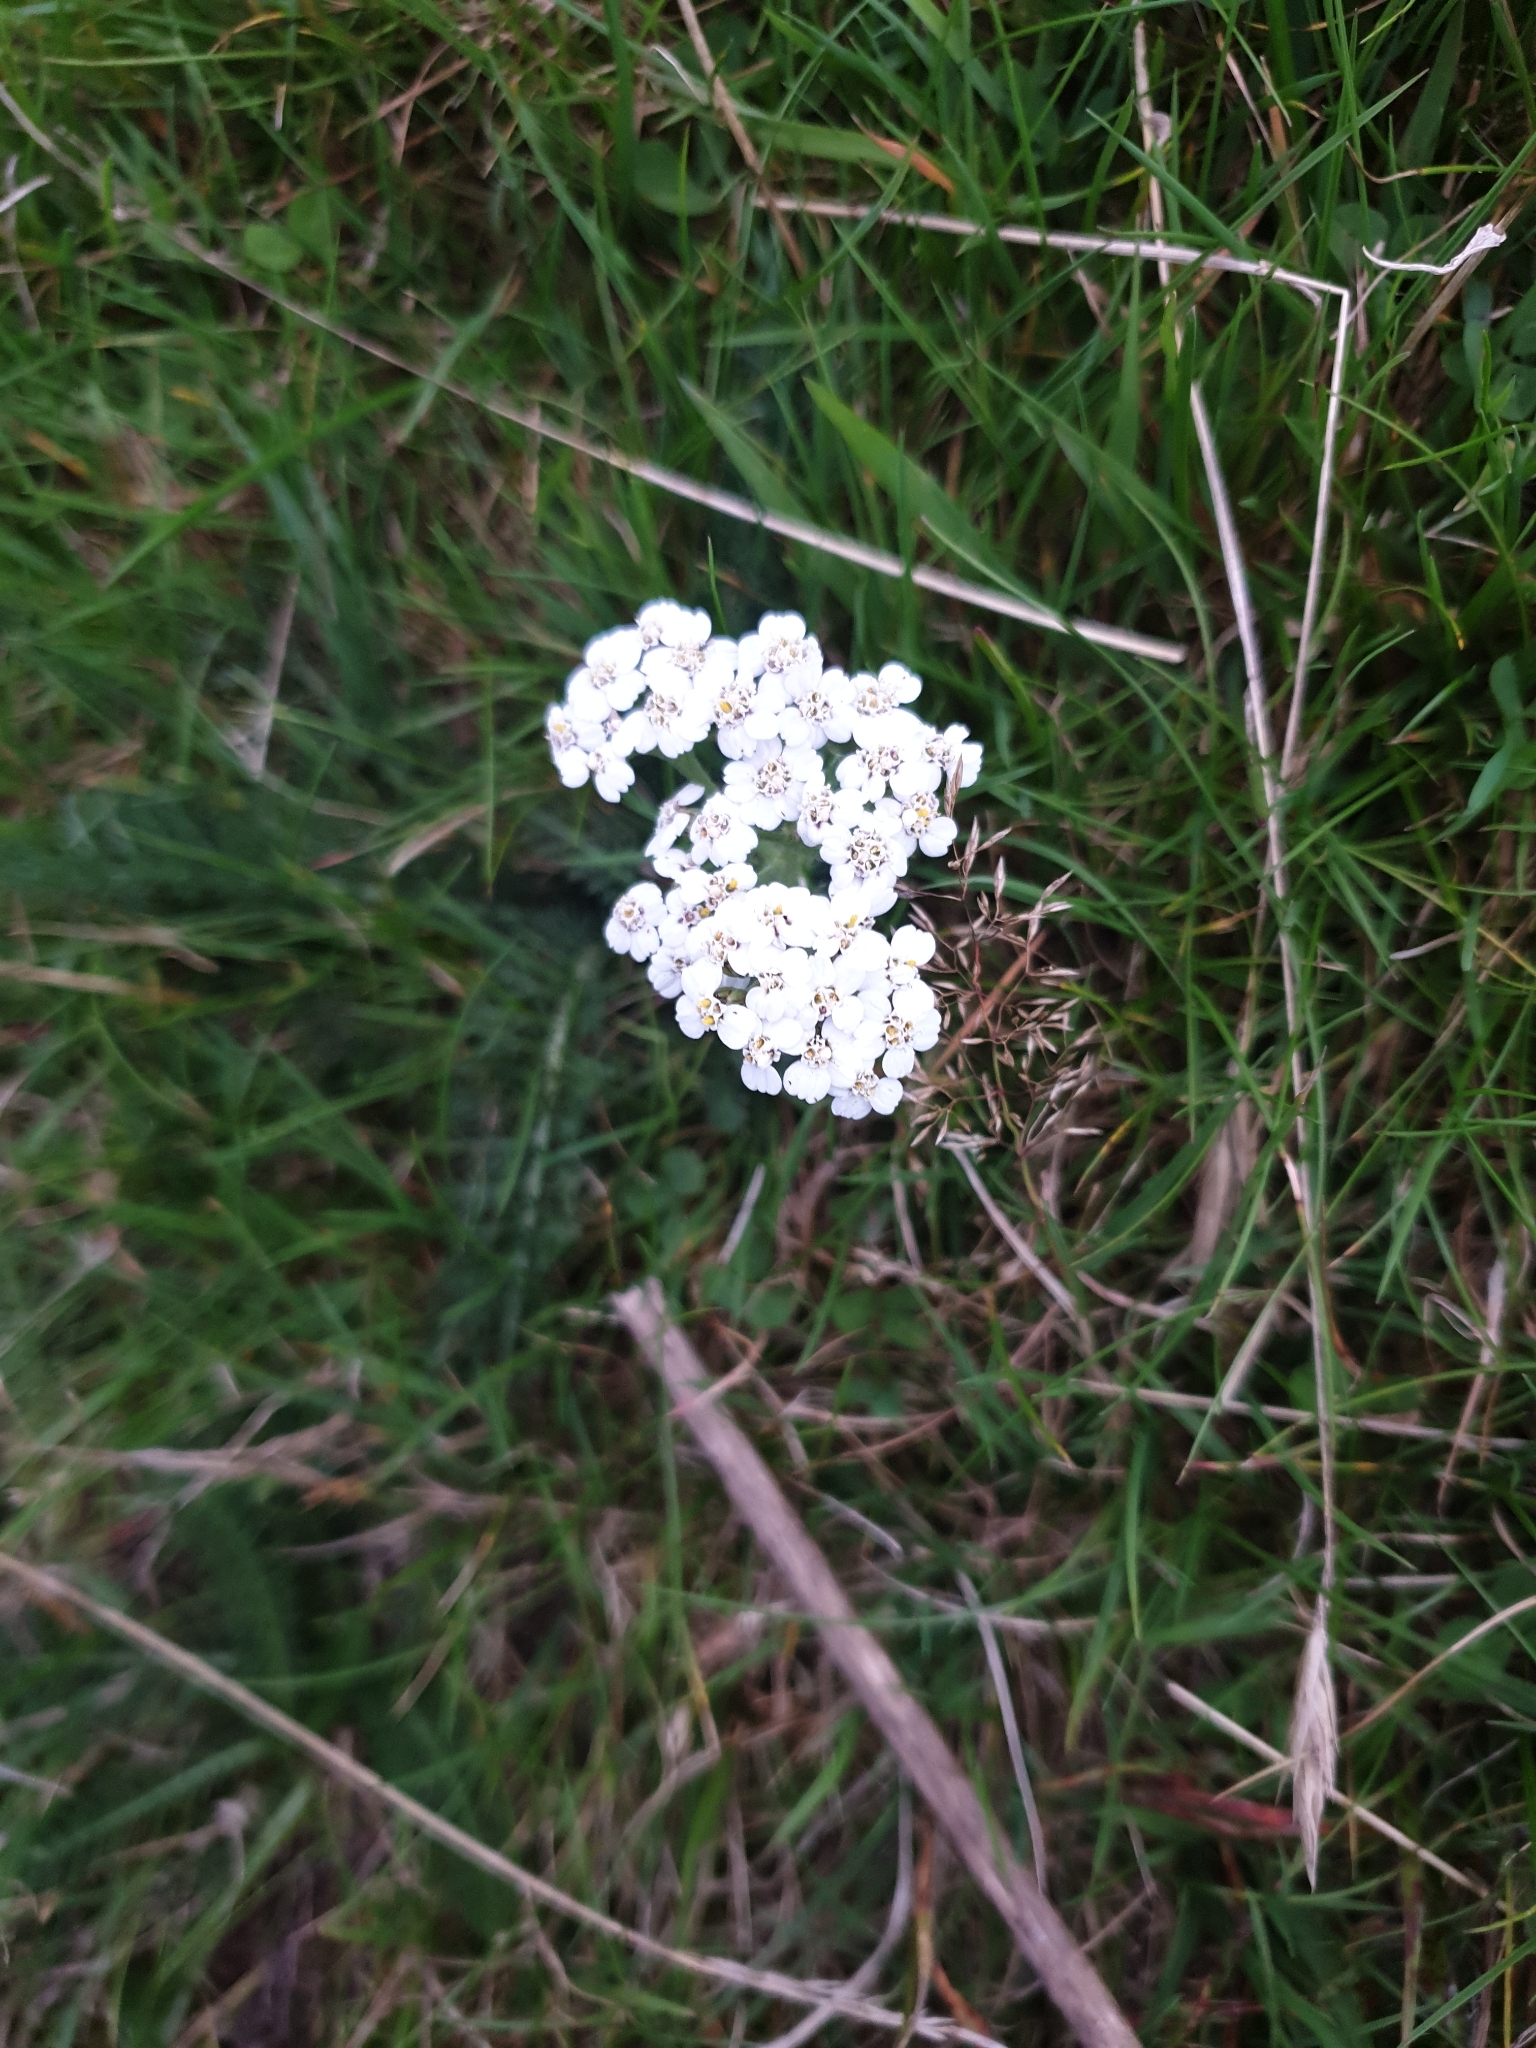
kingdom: Plantae
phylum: Tracheophyta
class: Magnoliopsida
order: Asterales
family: Asteraceae
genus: Achillea
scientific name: Achillea millefolium
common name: Yarrow
